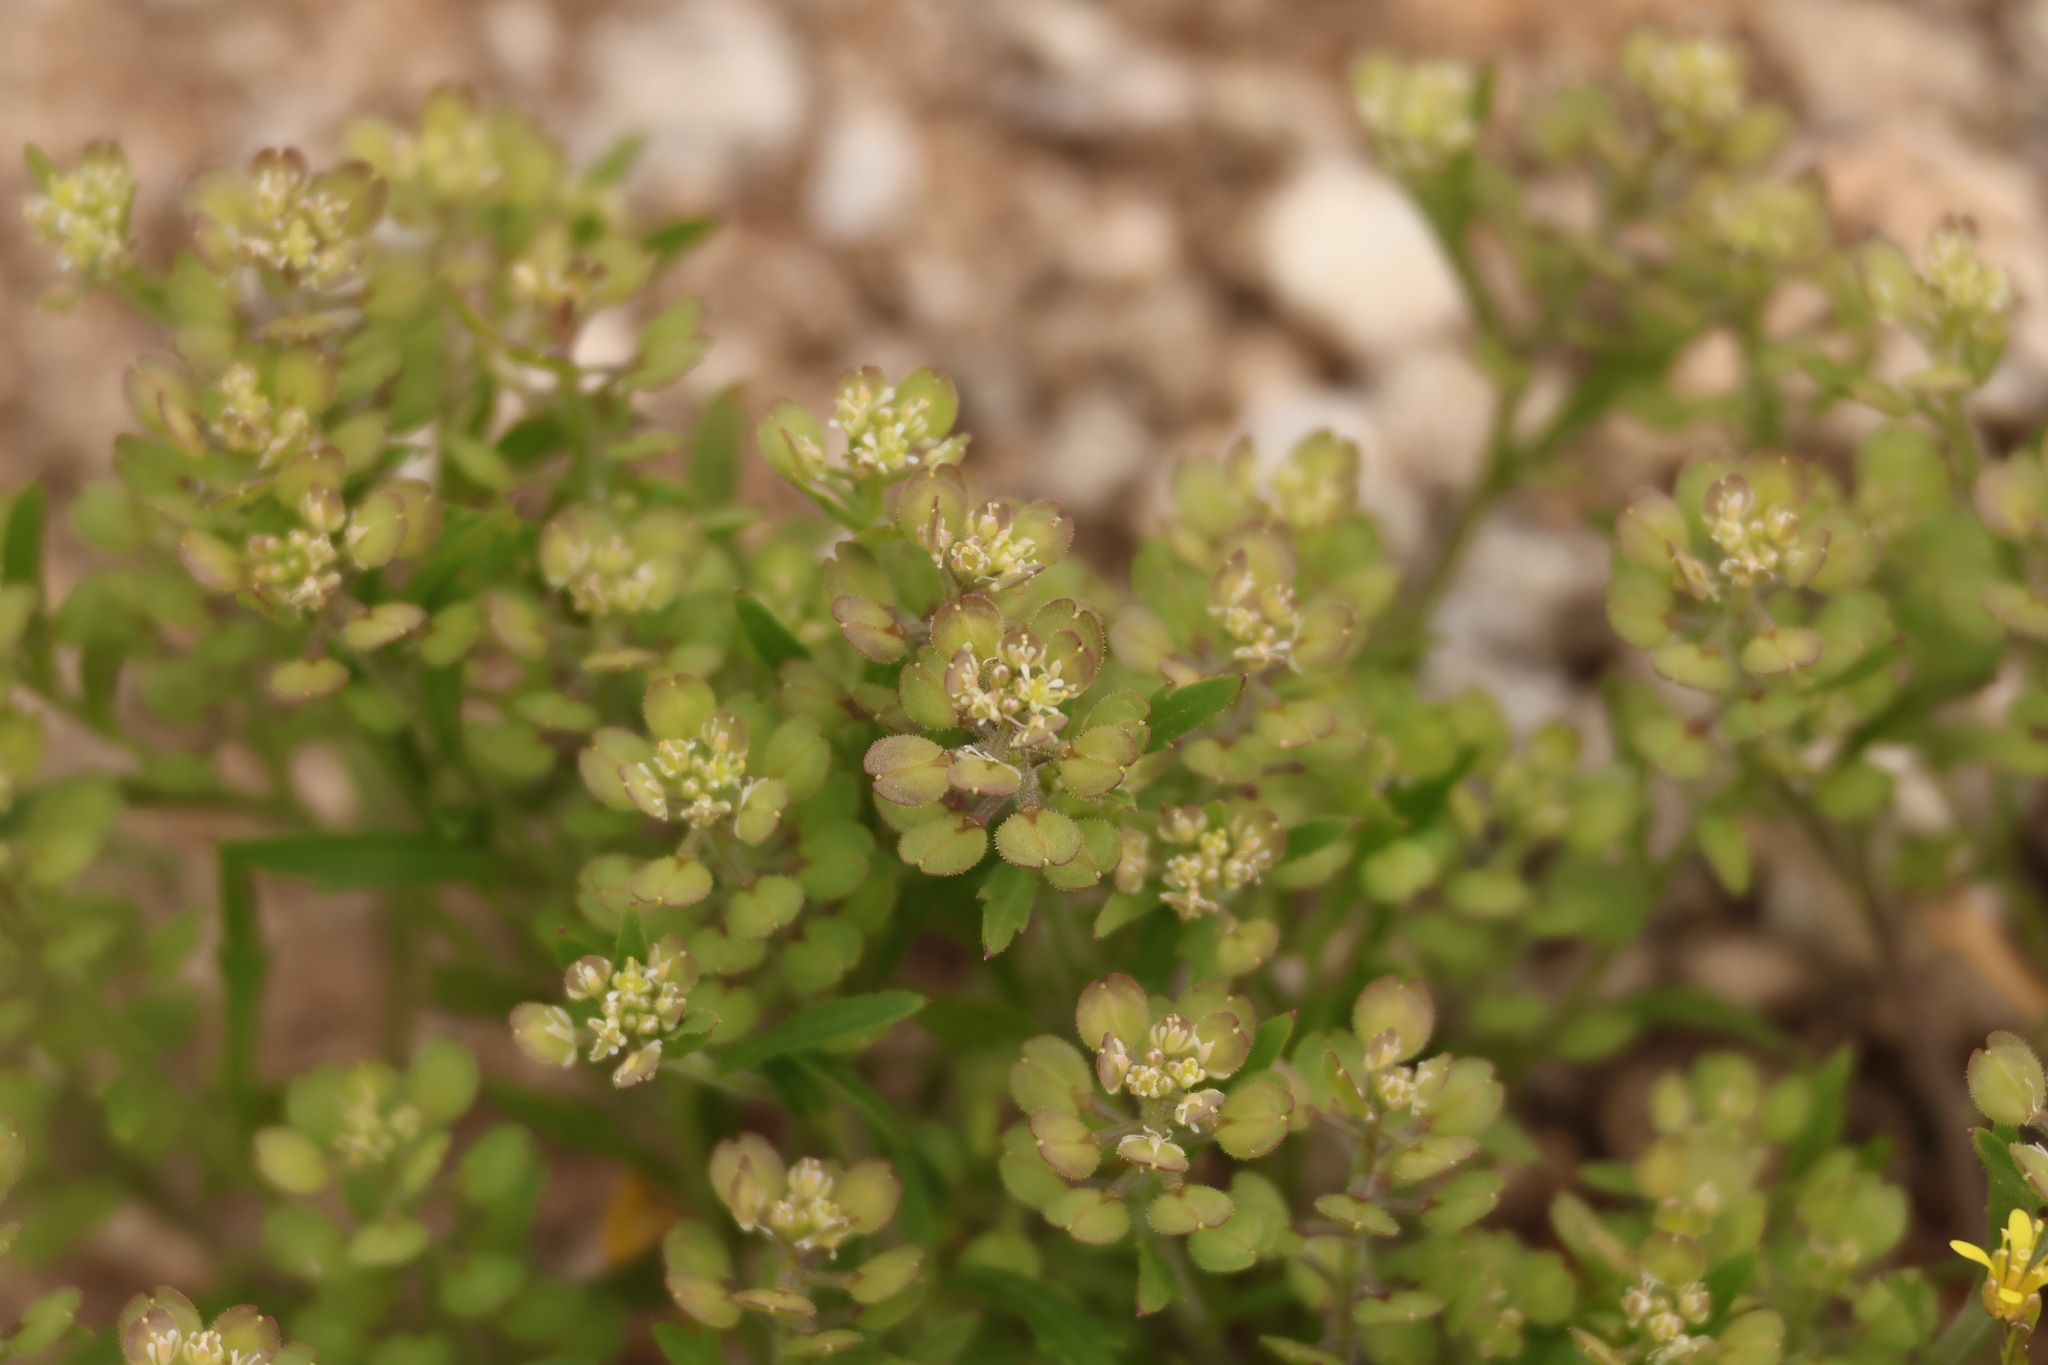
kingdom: Plantae
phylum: Tracheophyta
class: Magnoliopsida
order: Brassicales
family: Brassicaceae
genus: Lepidium
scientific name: Lepidium lasiocarpum
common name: Hairy-pod pepperwort
